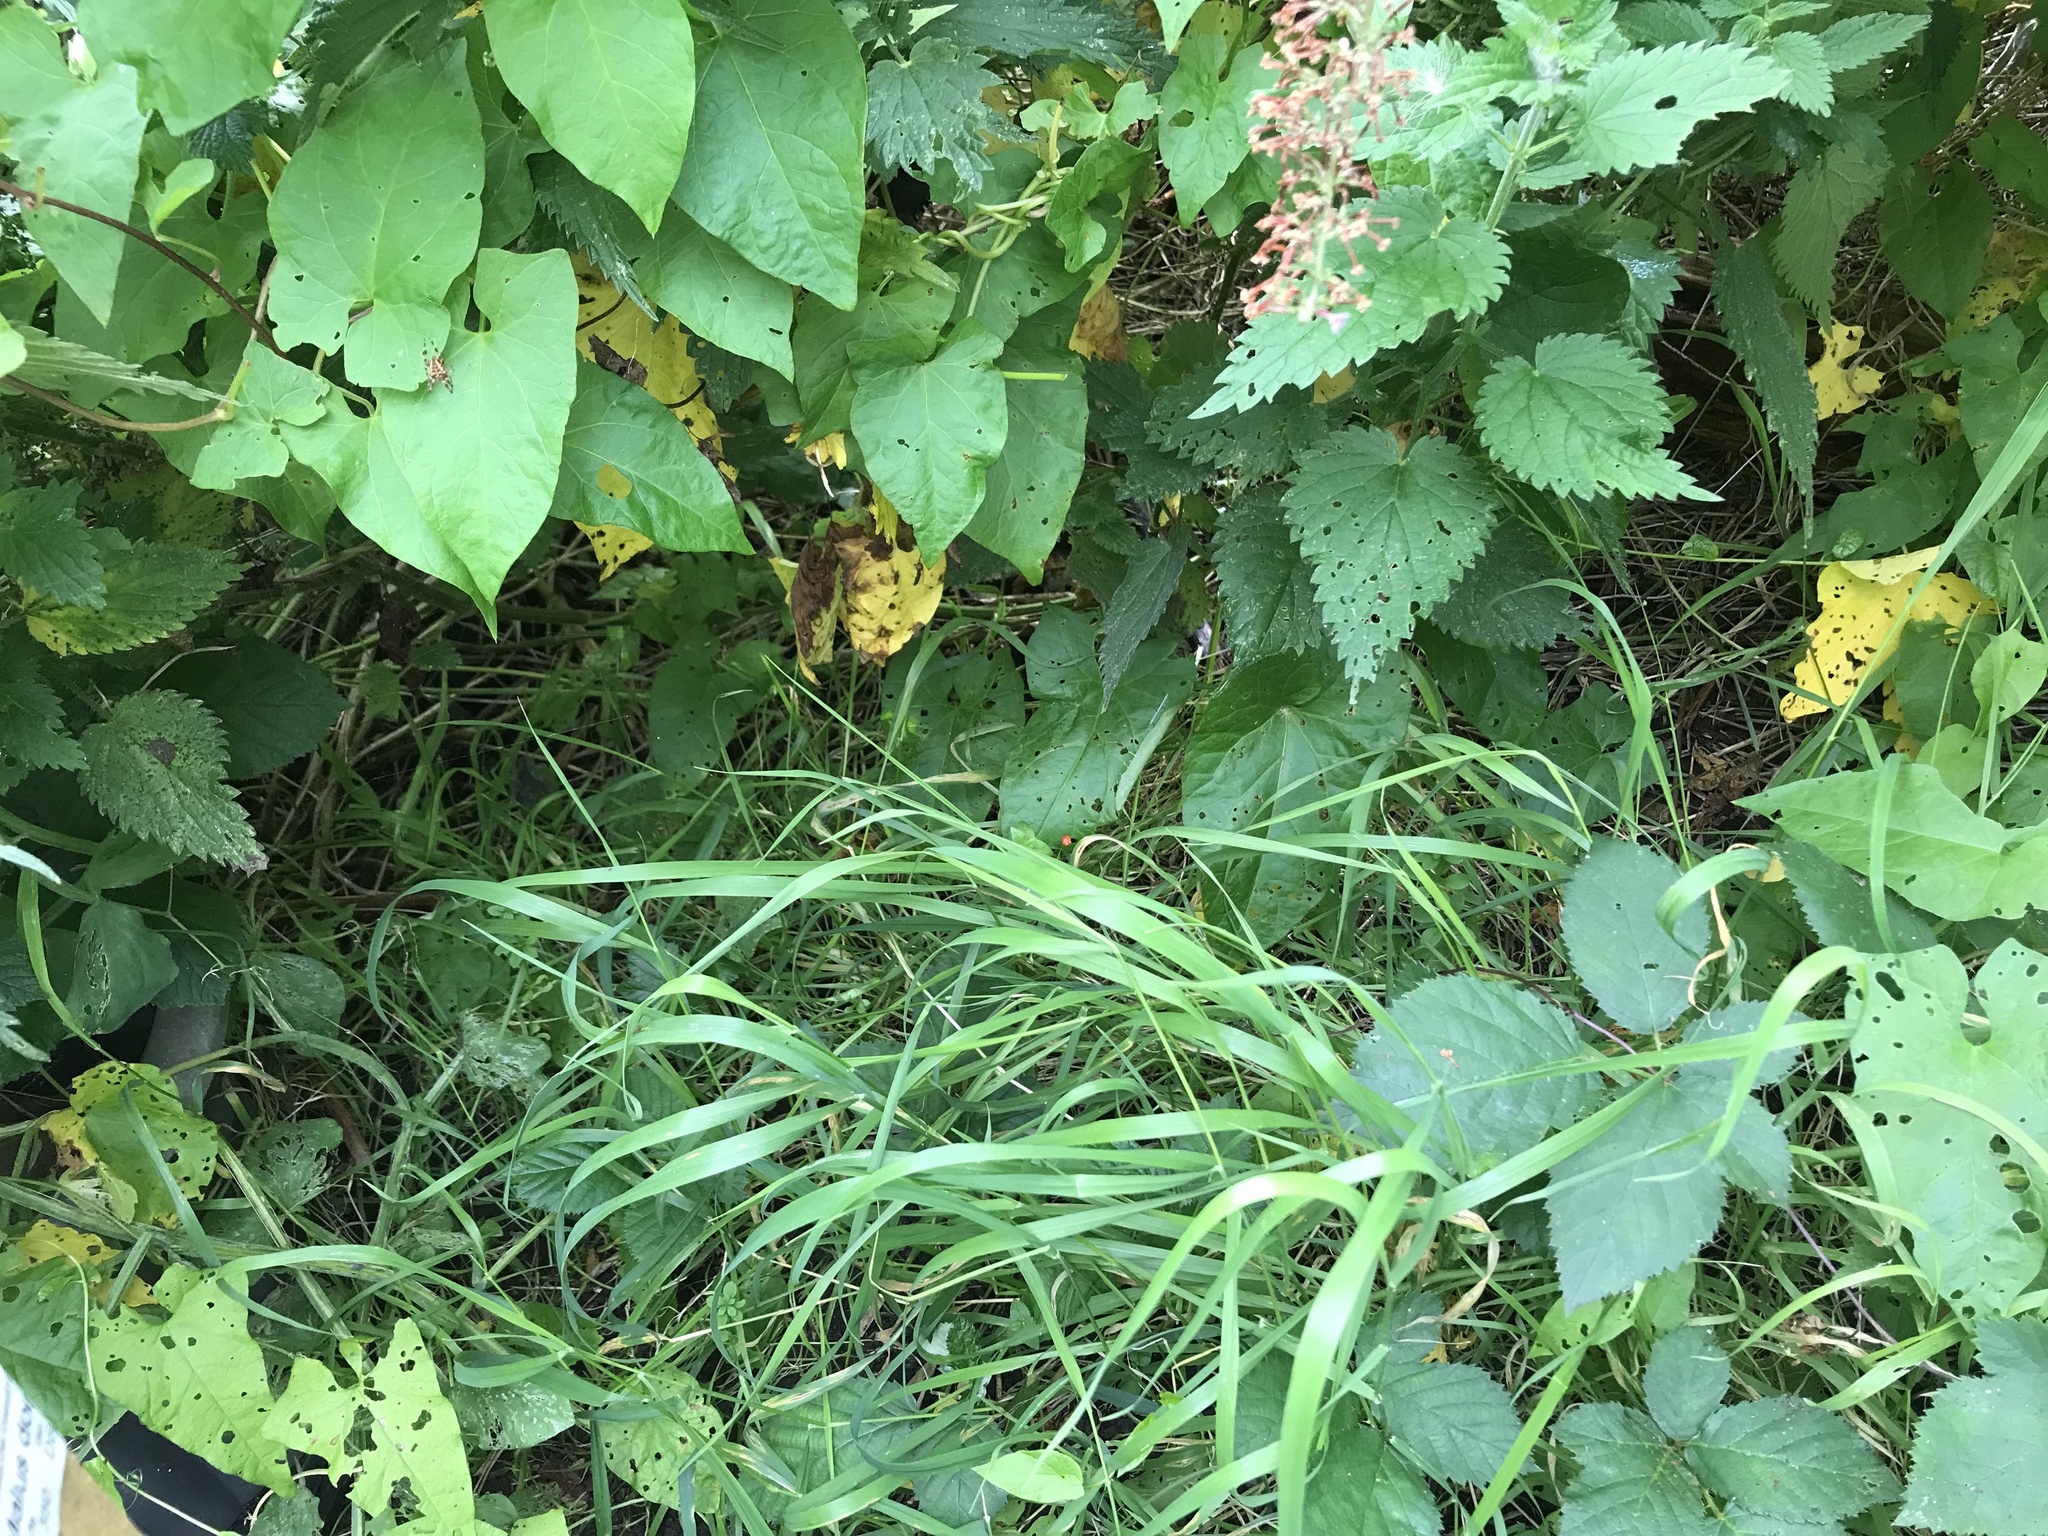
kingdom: Plantae
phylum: Tracheophyta
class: Magnoliopsida
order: Ericales
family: Primulaceae
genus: Lysimachia
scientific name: Lysimachia arvensis
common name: Scarlet pimpernel
